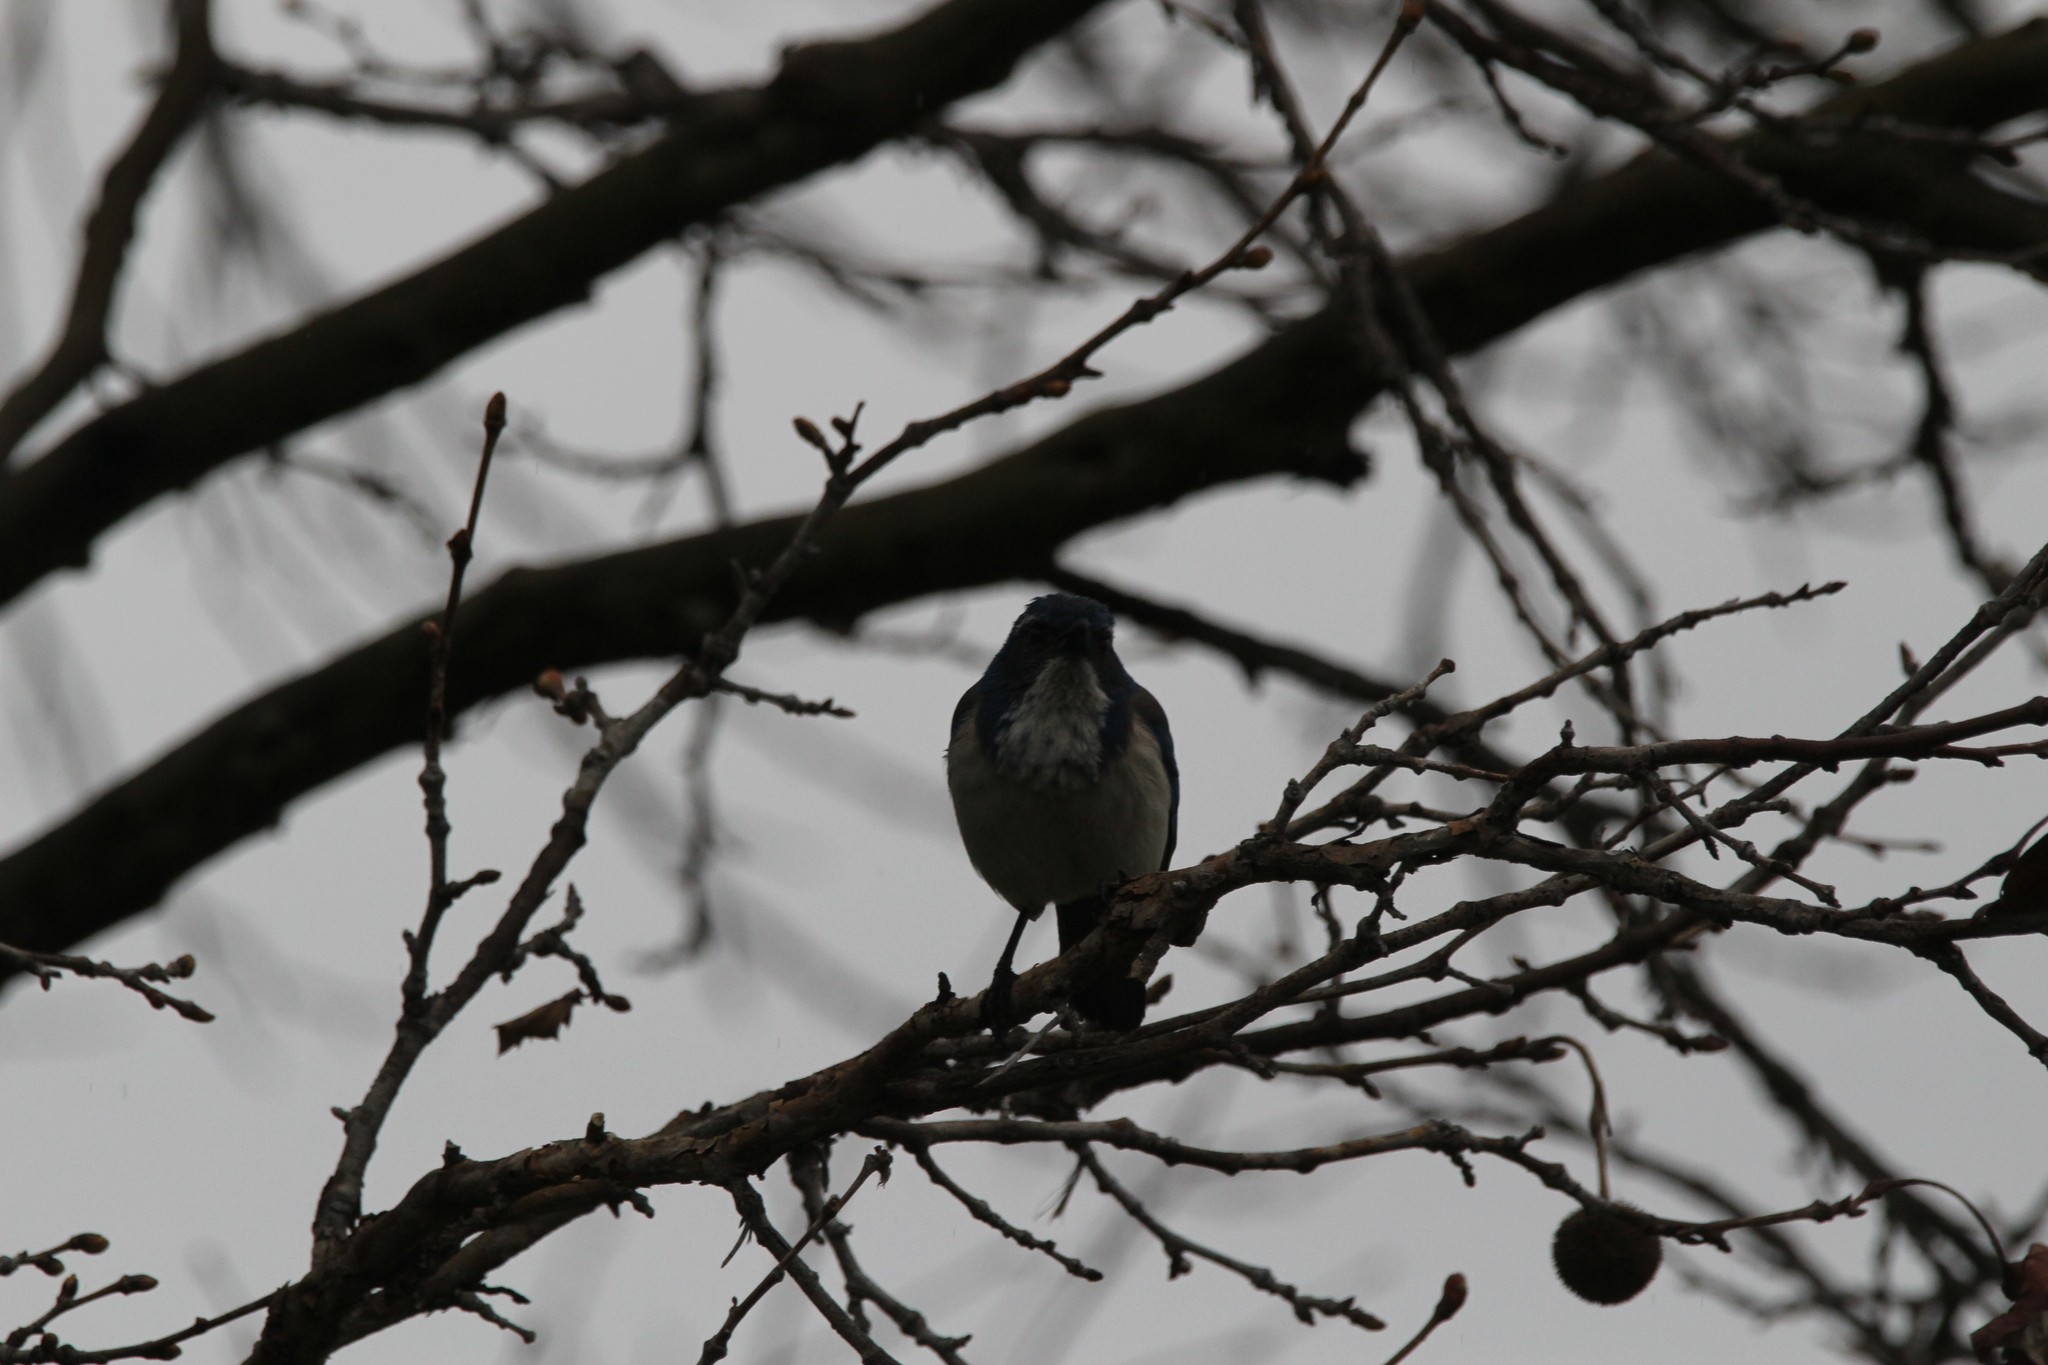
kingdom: Animalia
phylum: Chordata
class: Aves
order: Passeriformes
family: Corvidae
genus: Aphelocoma
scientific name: Aphelocoma californica
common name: California scrub-jay
